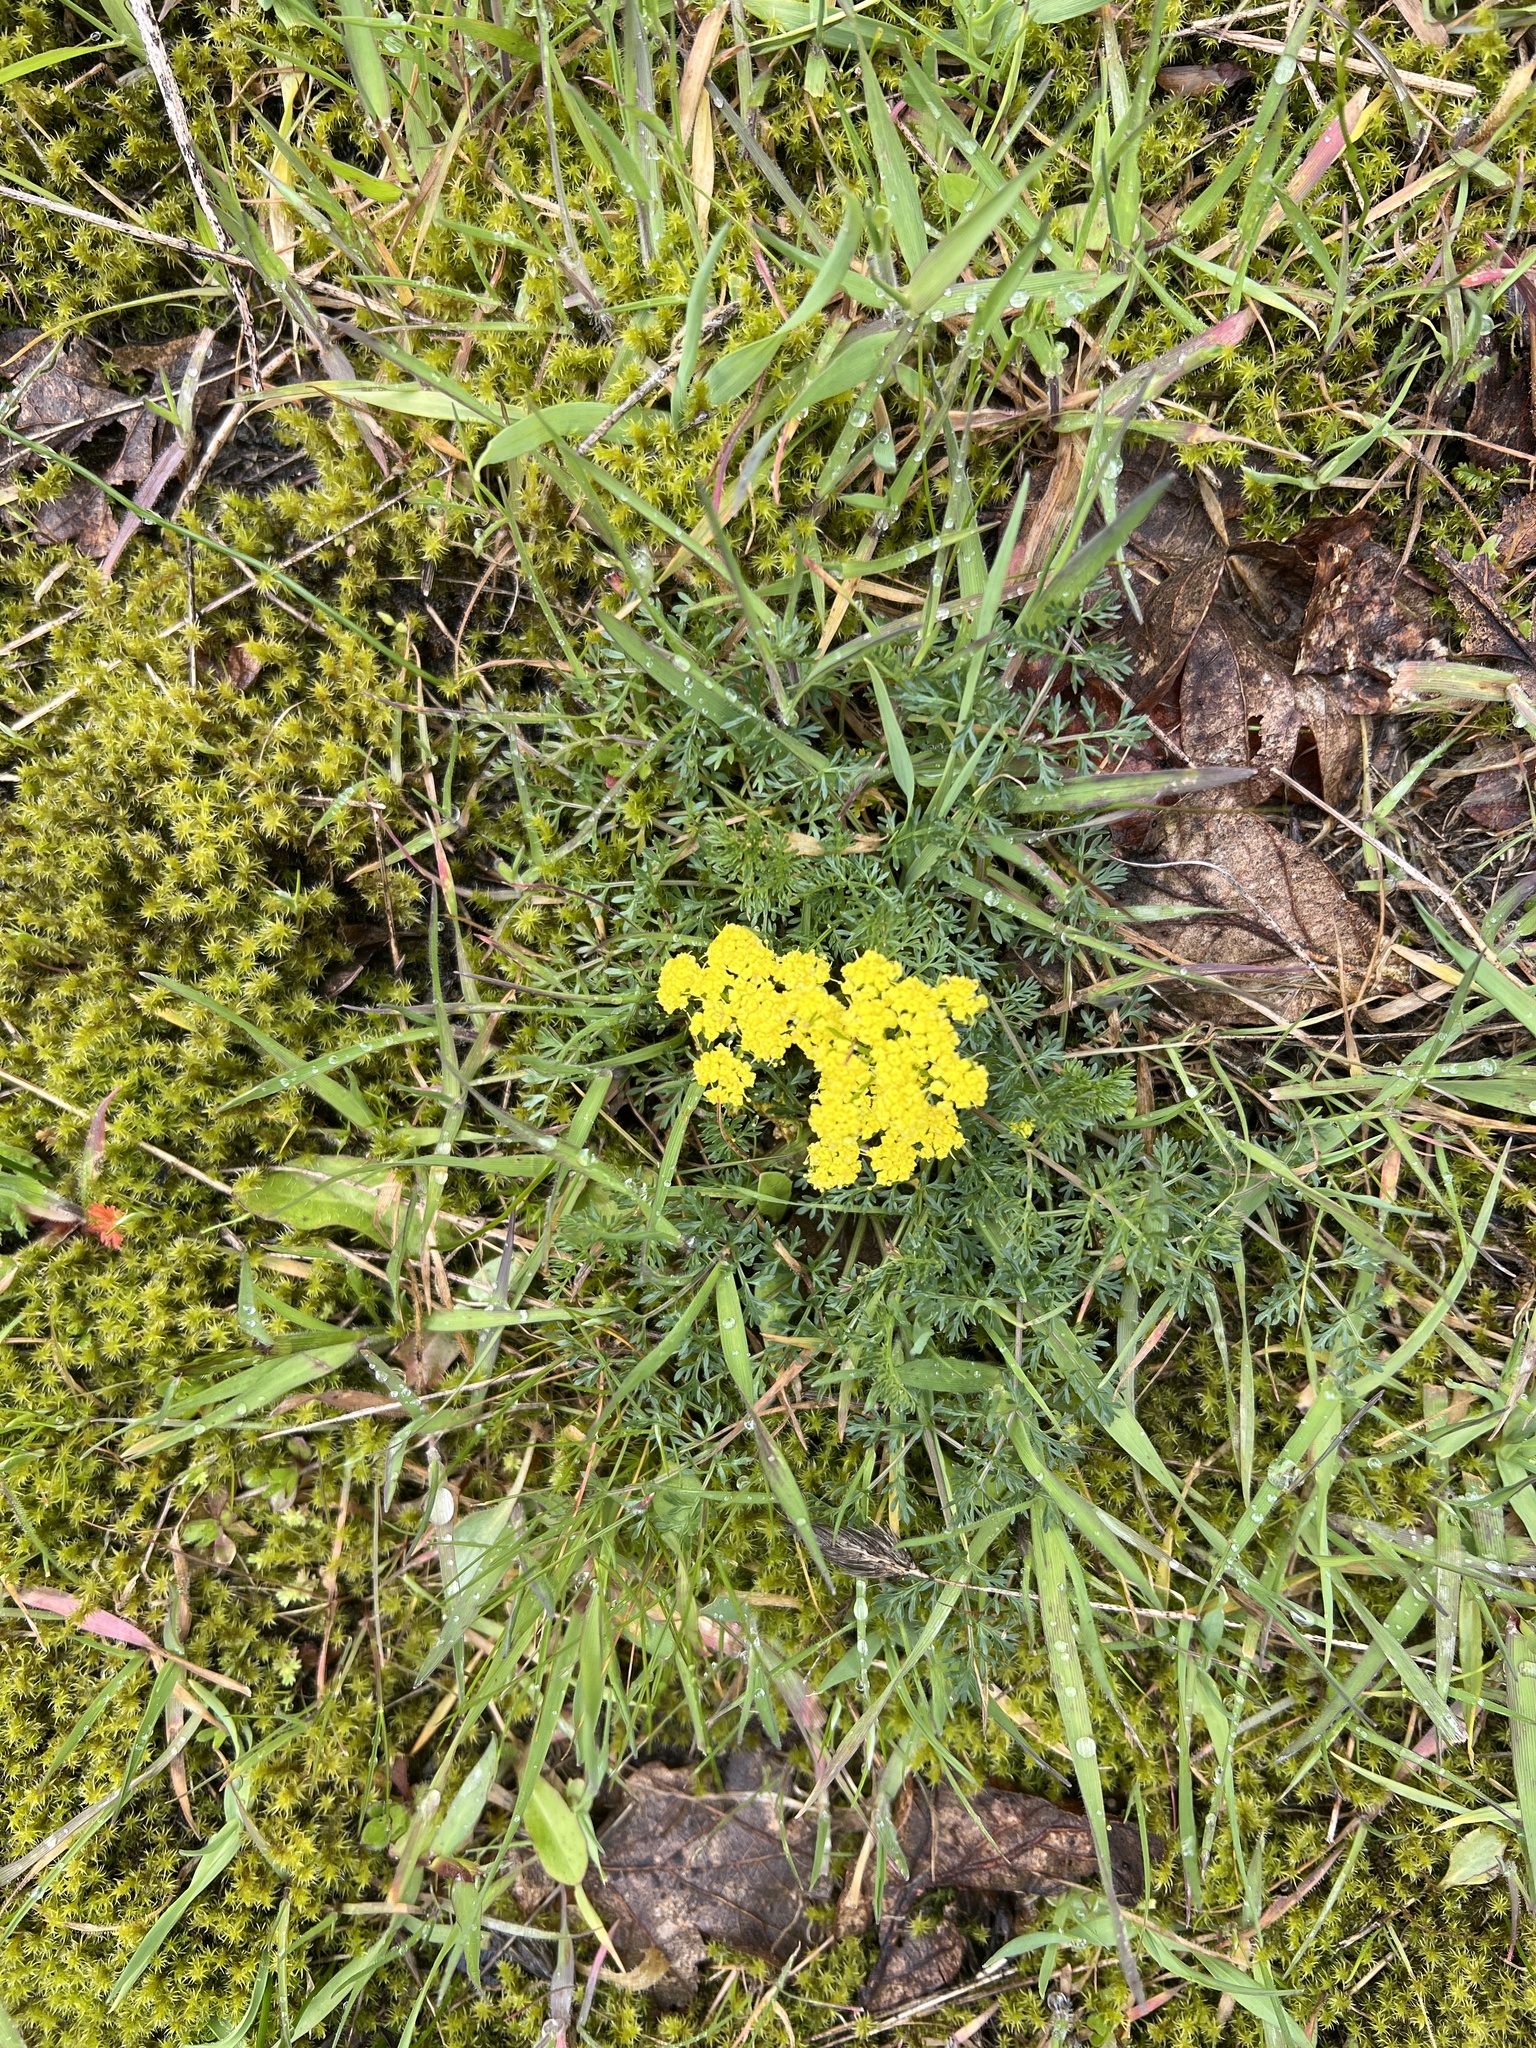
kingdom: Plantae
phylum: Tracheophyta
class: Magnoliopsida
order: Apiales
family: Apiaceae
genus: Lomatium
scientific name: Lomatium utriculatum
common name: Fine-leaf desert-parsley
